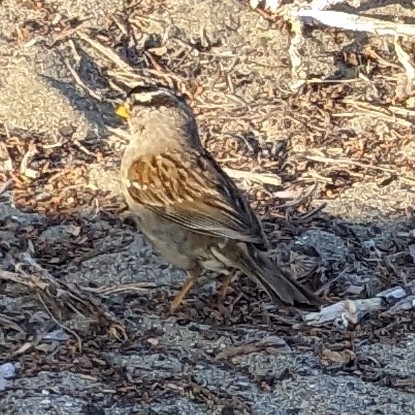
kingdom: Animalia
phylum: Chordata
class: Aves
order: Passeriformes
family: Passerellidae
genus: Zonotrichia
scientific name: Zonotrichia leucophrys
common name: White-crowned sparrow
